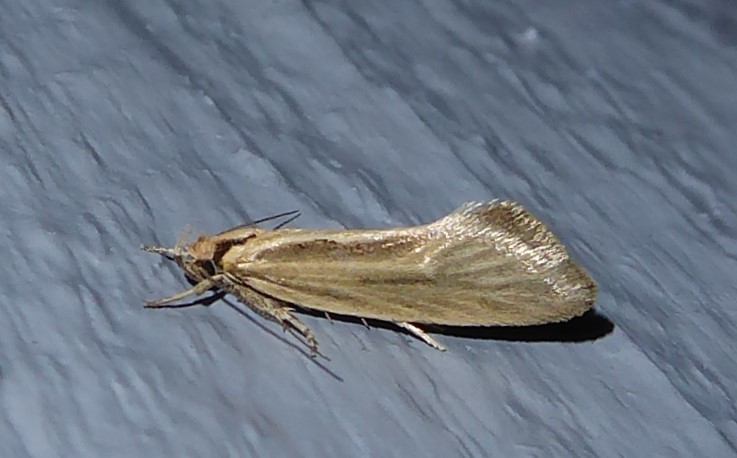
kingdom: Animalia
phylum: Arthropoda
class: Insecta
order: Lepidoptera
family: Oecophoridae
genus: Tingena
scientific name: Tingena chloradelpha
